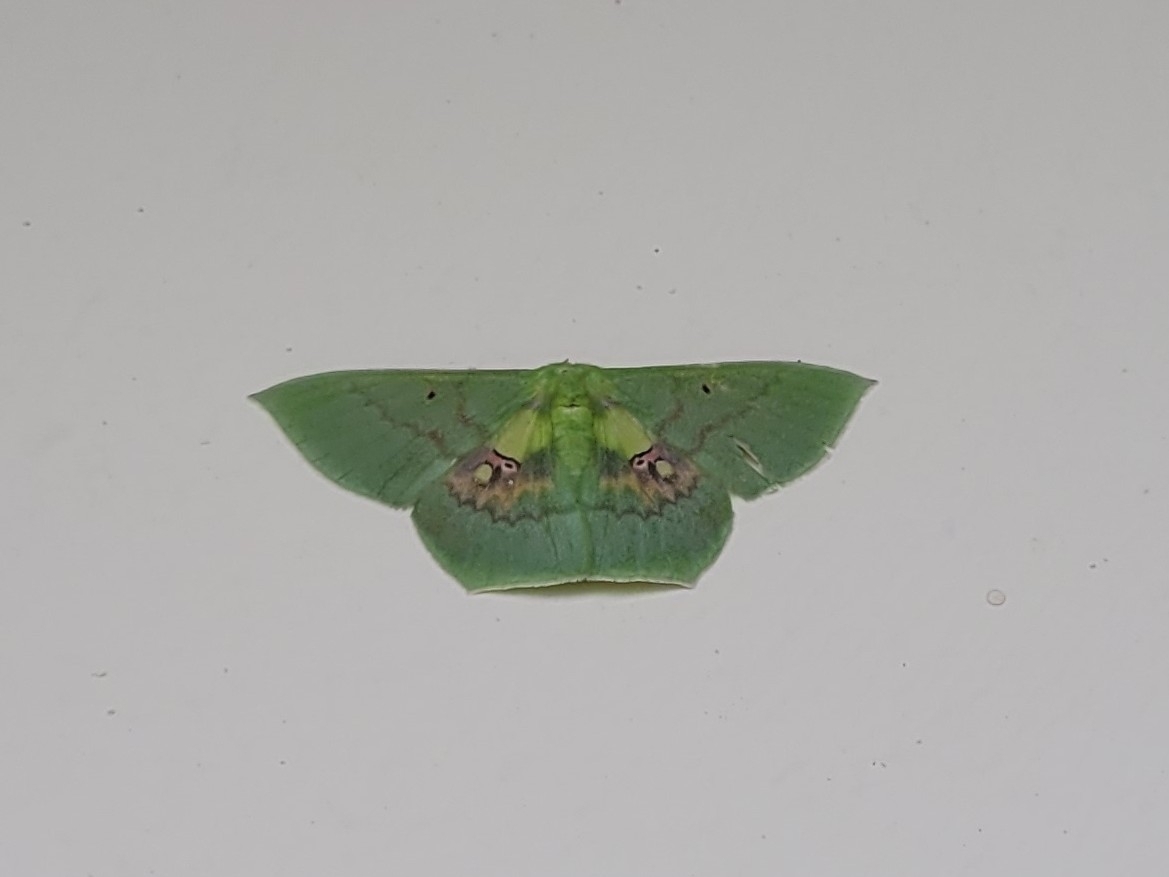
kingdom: Animalia
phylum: Arthropoda
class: Insecta
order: Lepidoptera
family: Geometridae
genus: Aporandria
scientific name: Aporandria specularia
